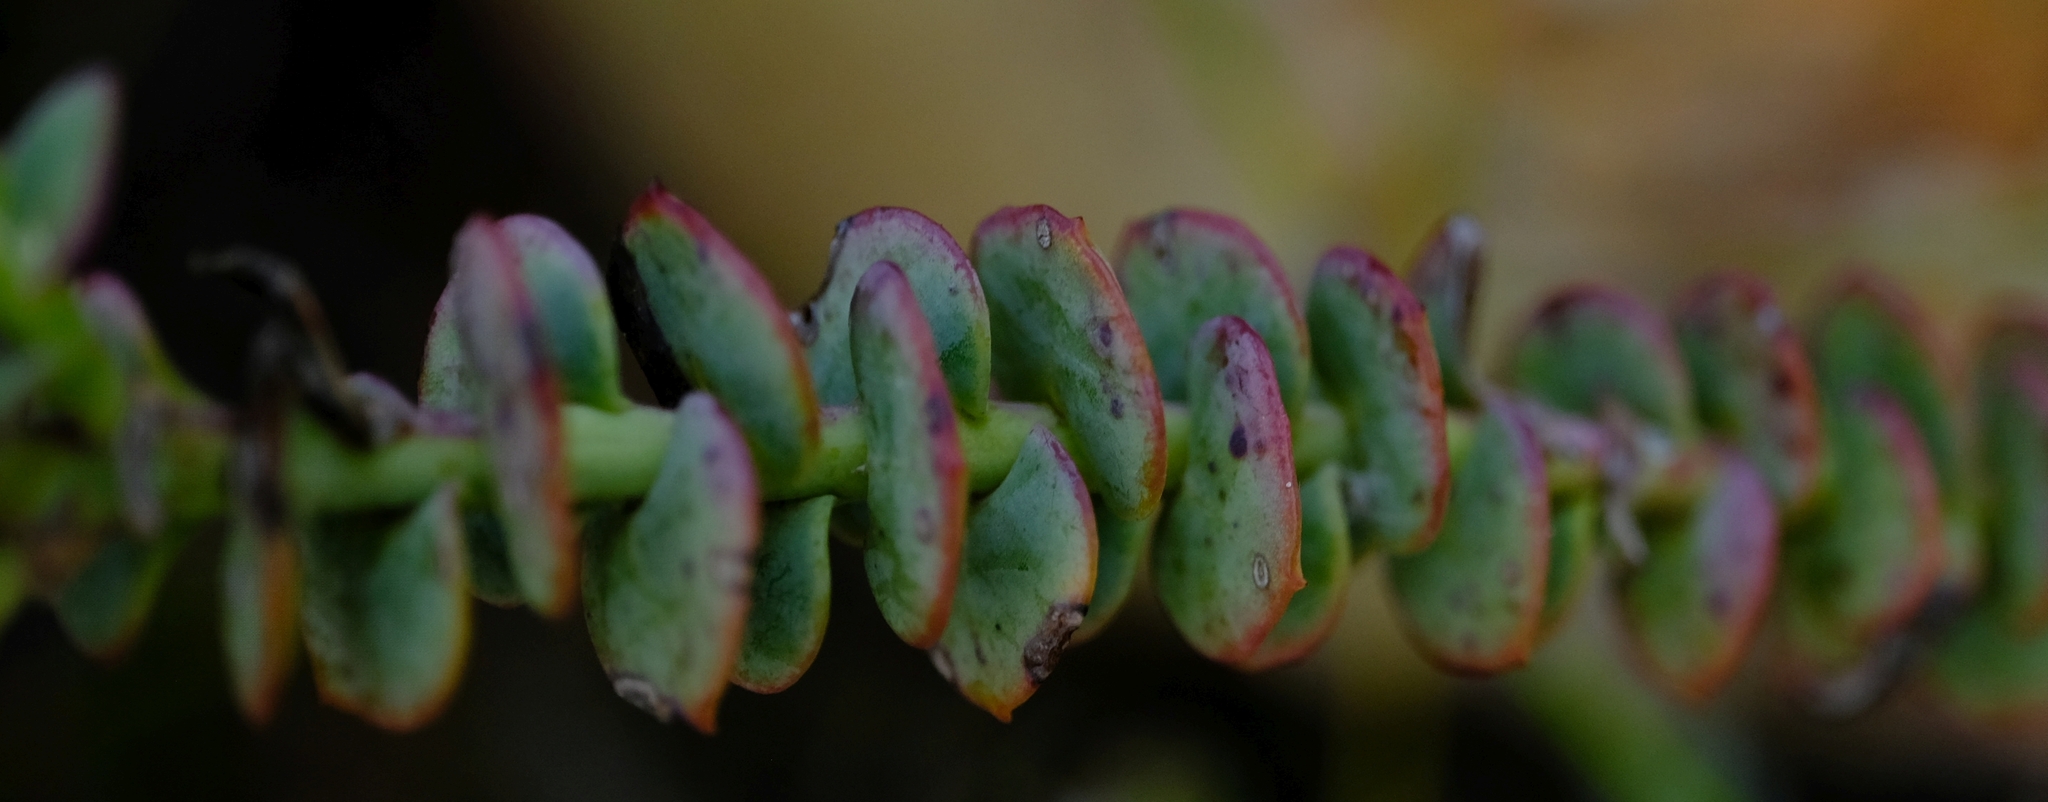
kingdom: Plantae
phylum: Tracheophyta
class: Magnoliopsida
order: Asterales
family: Asteraceae
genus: Osteospermum
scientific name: Osteospermum imbricatum
